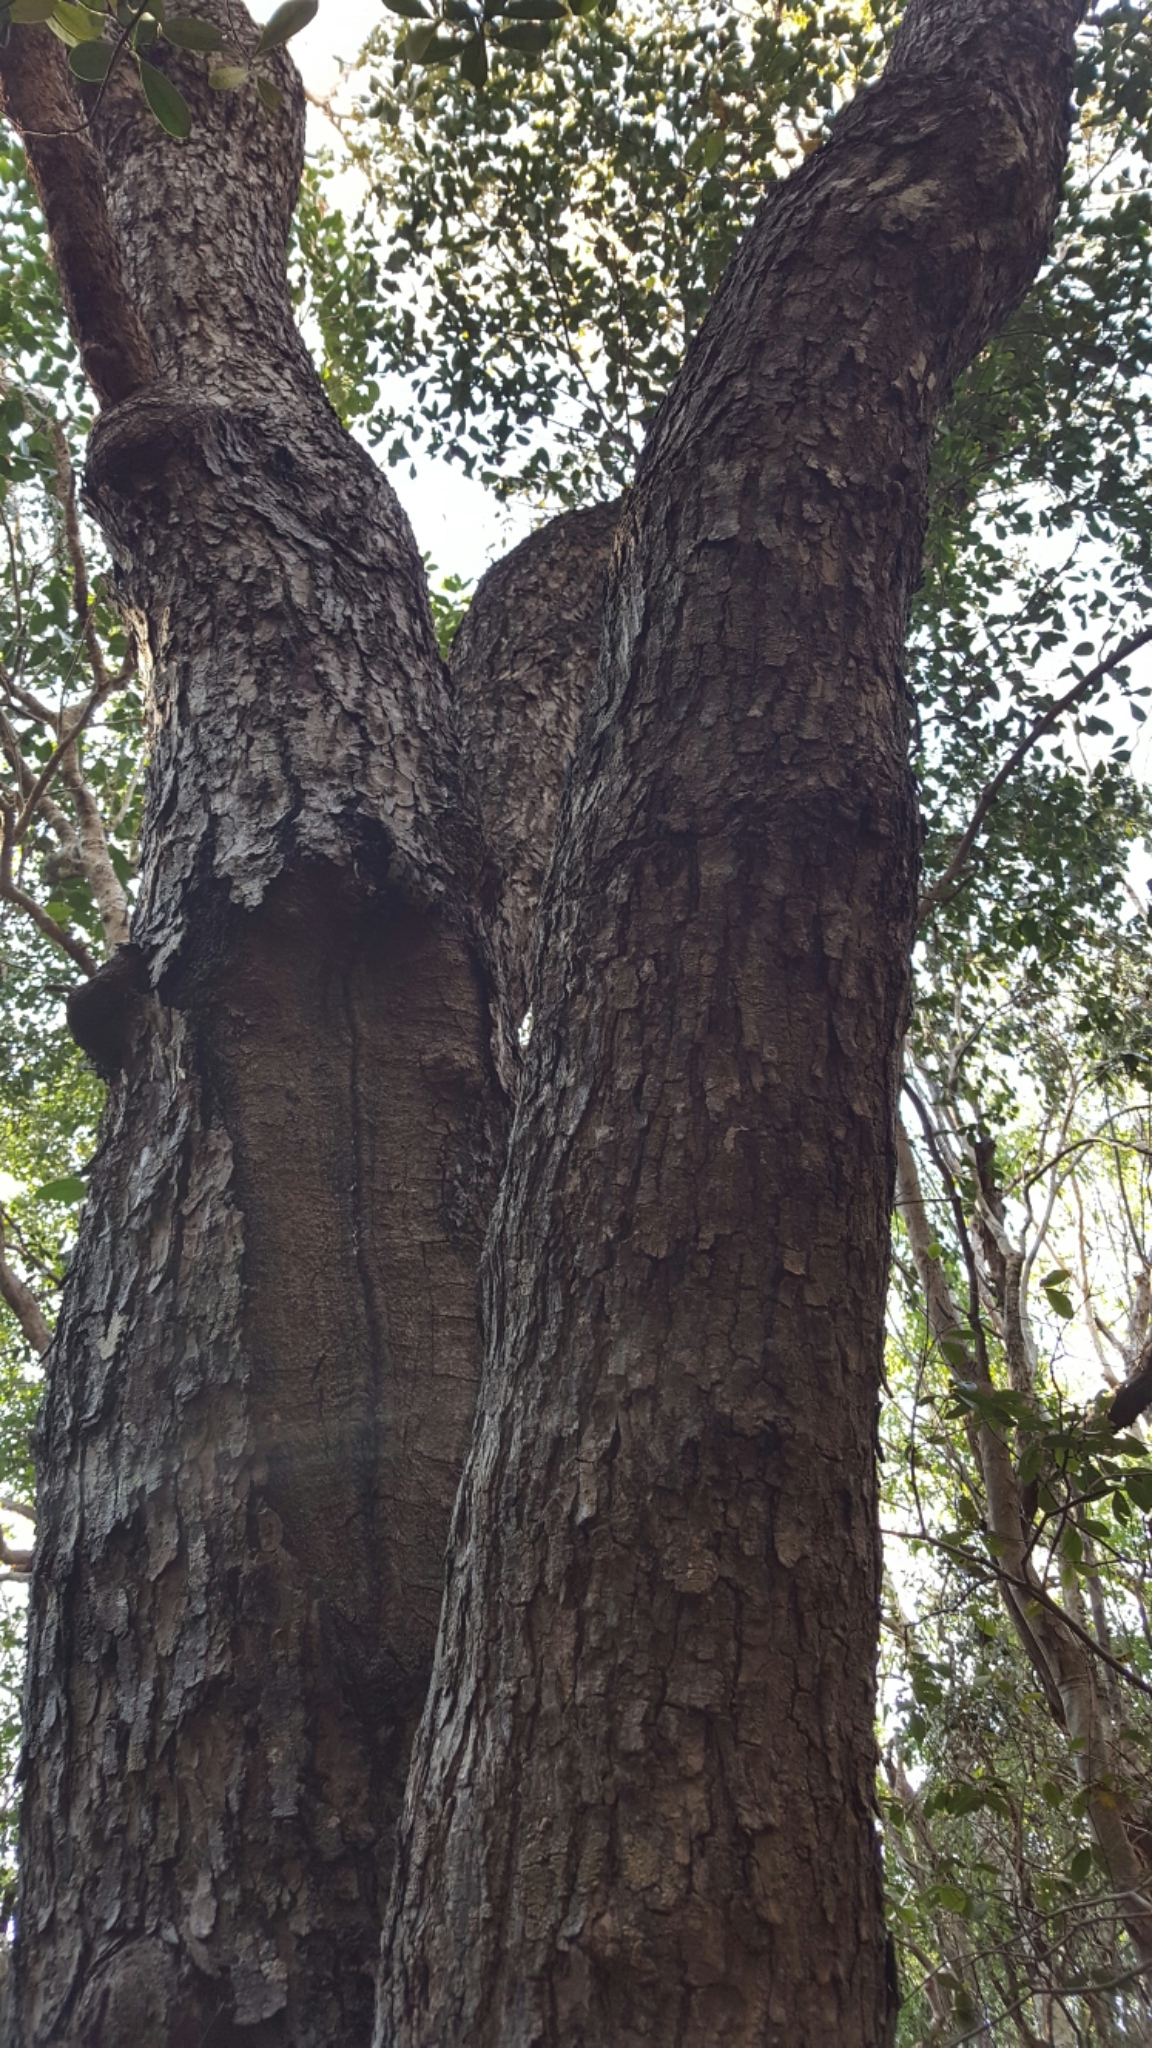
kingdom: Plantae
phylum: Tracheophyta
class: Magnoliopsida
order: Sapindales
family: Meliaceae
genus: Swietenia
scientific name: Swietenia mahagoni
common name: West indian mahogany
